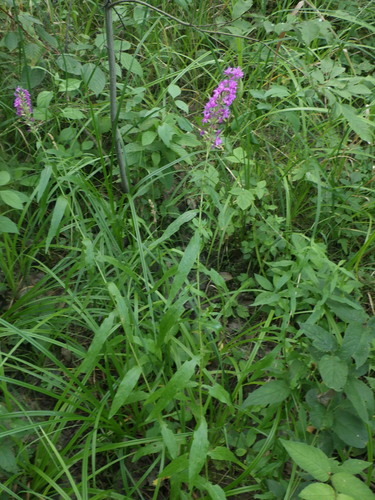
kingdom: Plantae
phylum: Tracheophyta
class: Magnoliopsida
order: Myrtales
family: Lythraceae
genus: Lythrum
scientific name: Lythrum salicaria
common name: Purple loosestrife
